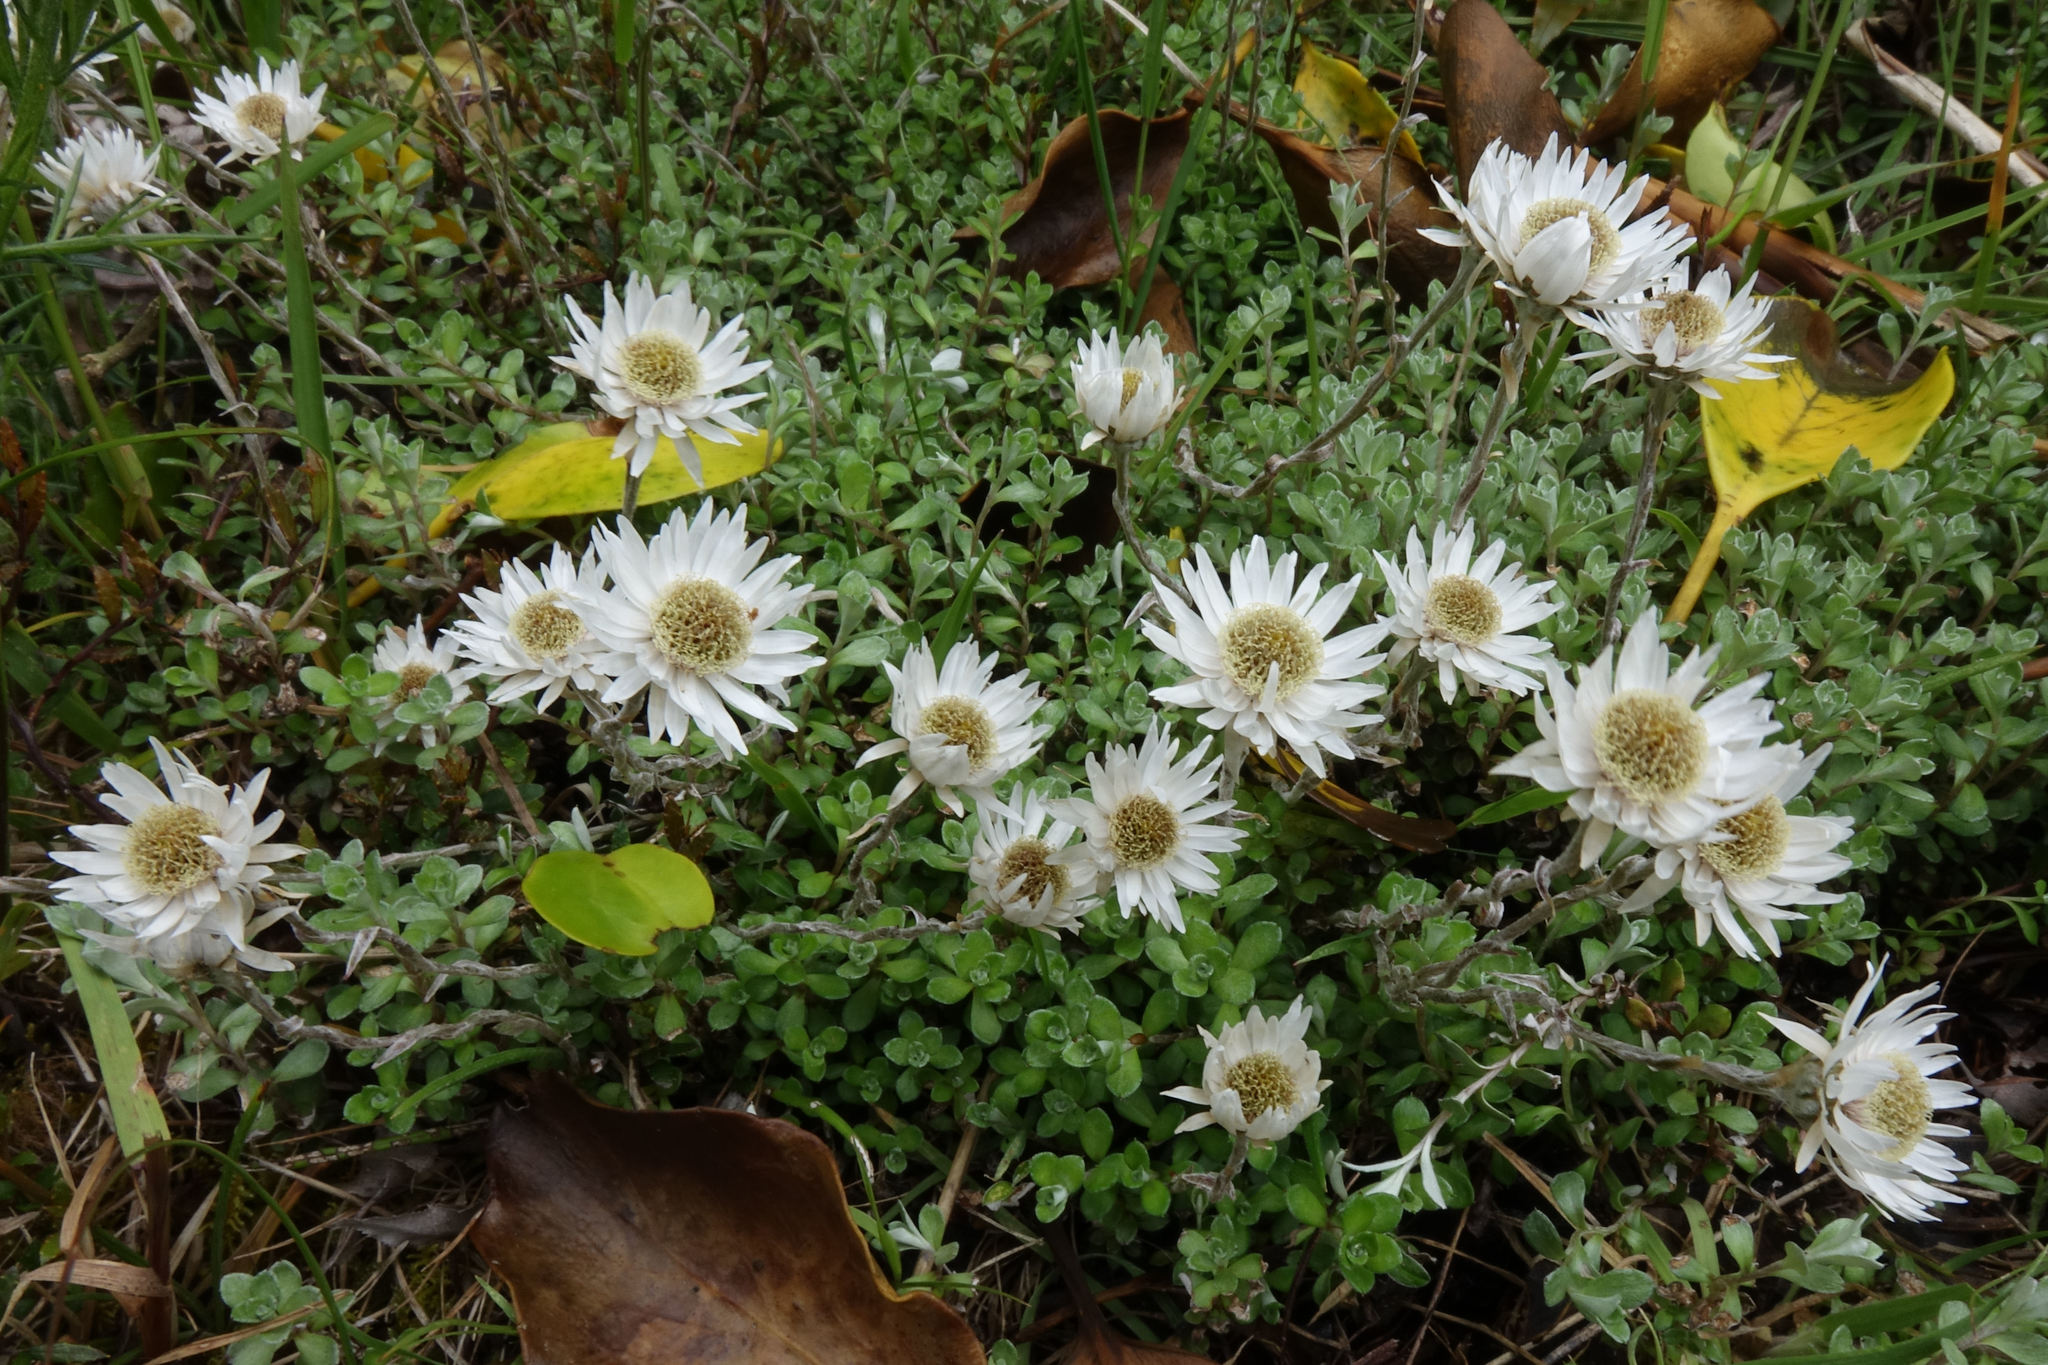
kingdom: Plantae
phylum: Tracheophyta
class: Magnoliopsida
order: Asterales
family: Asteraceae
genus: Anaphalioides
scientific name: Anaphalioides bellidioides
